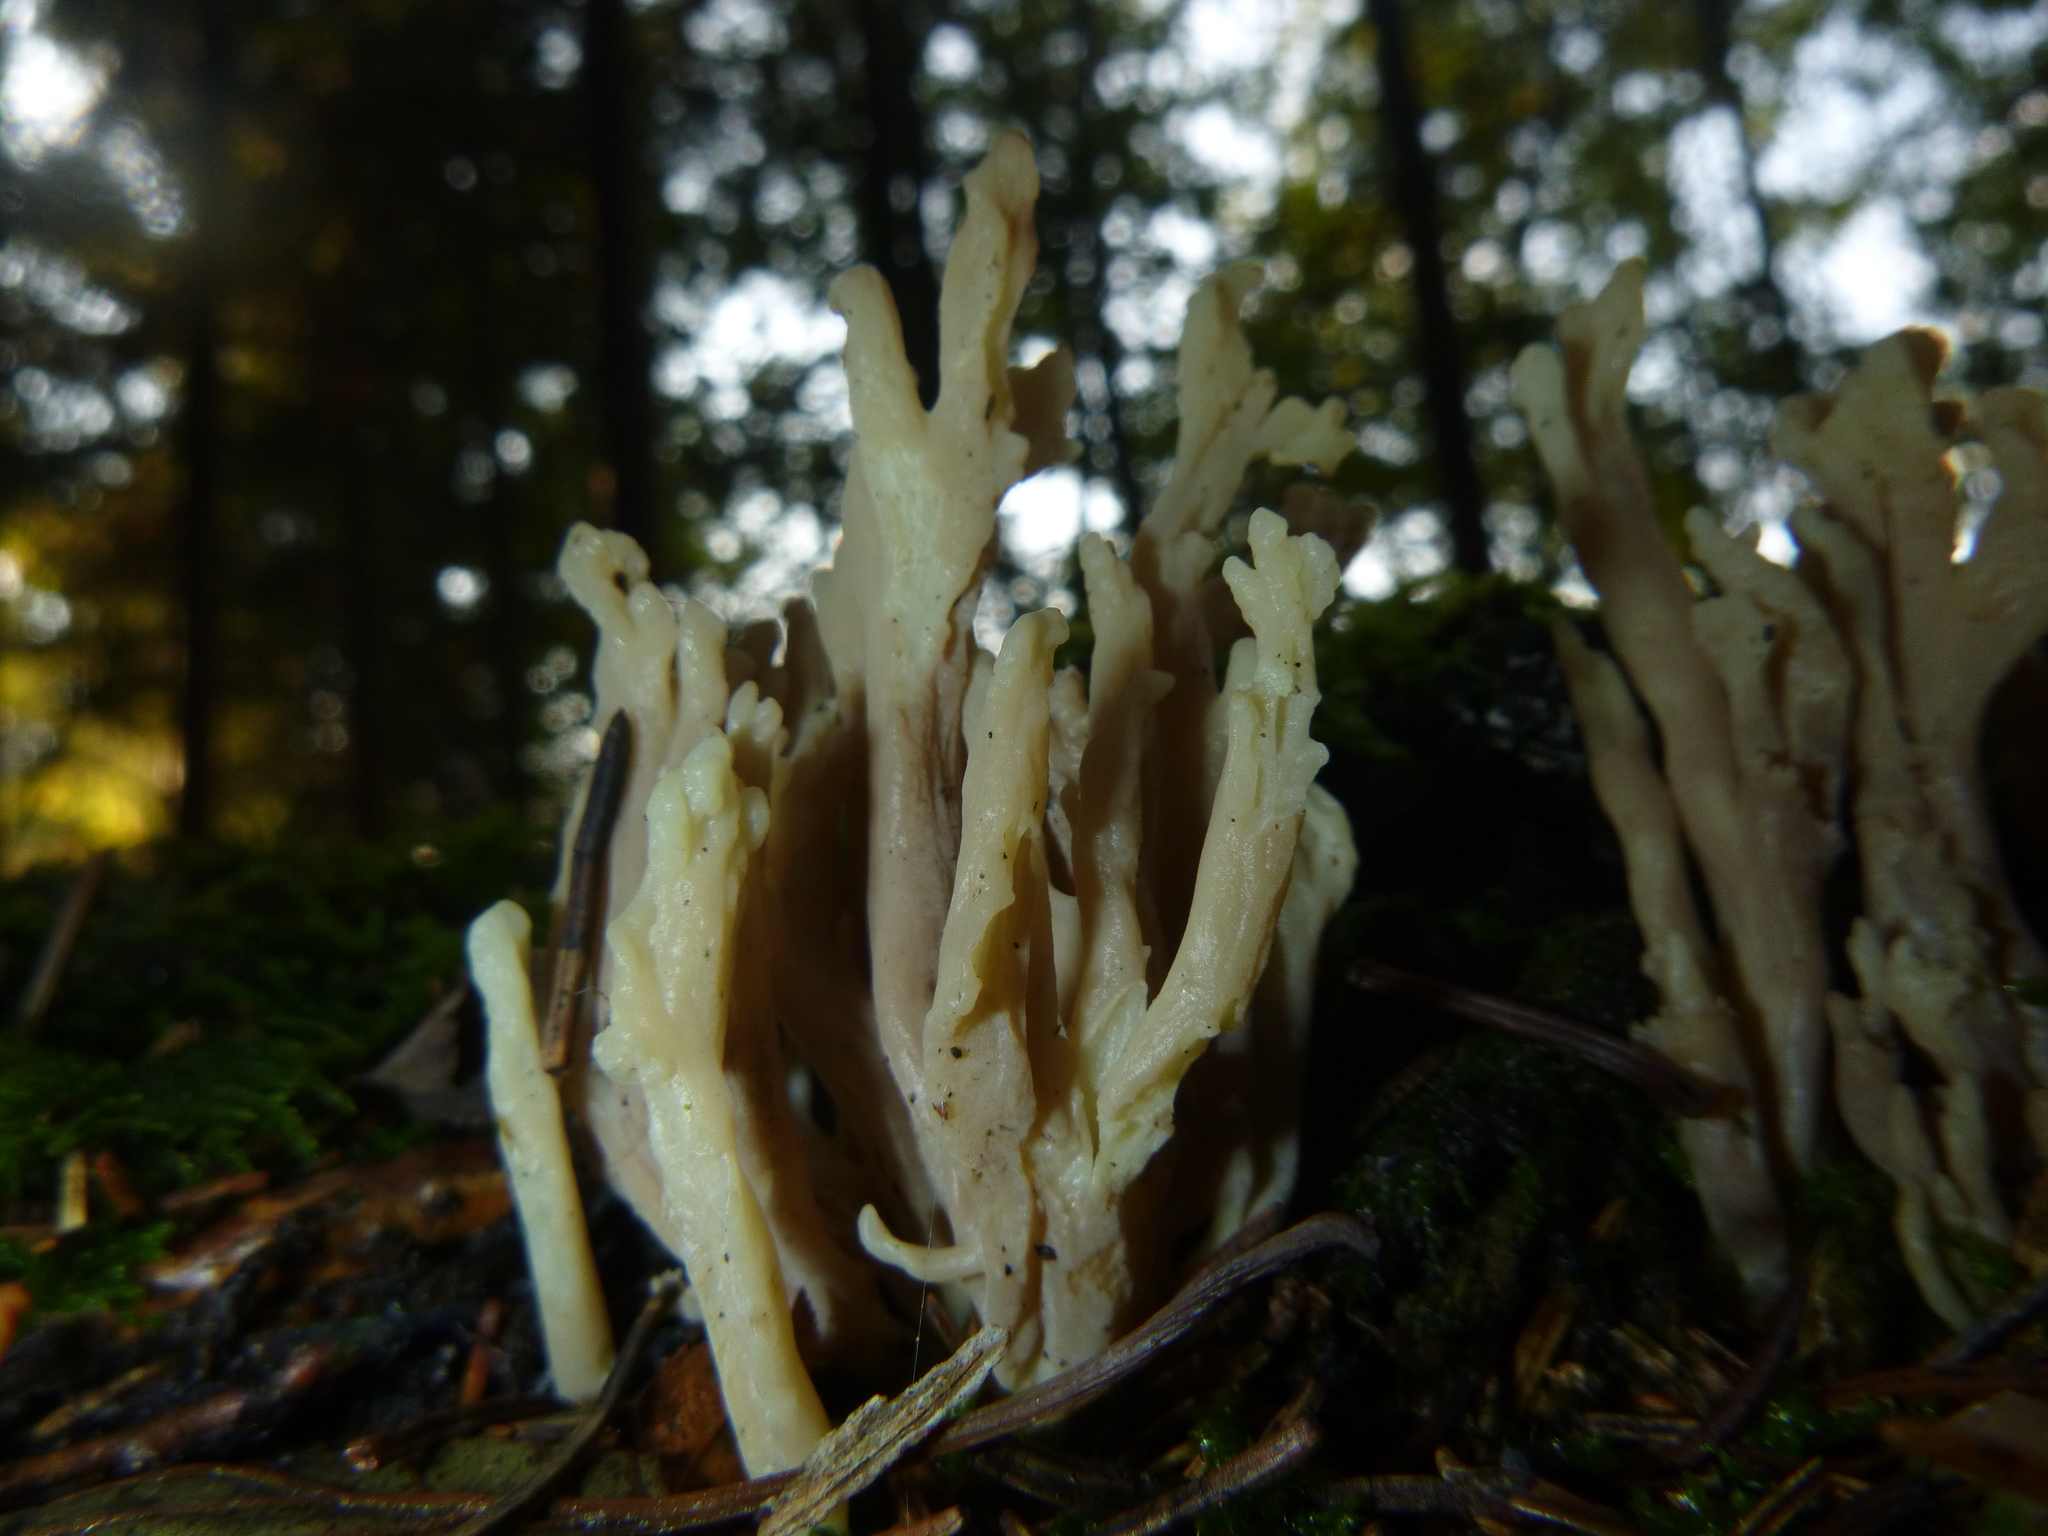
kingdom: Fungi
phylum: Basidiomycota
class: Agaricomycetes
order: Cantharellales
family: Hydnaceae
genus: Clavulina
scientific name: Clavulina cinerea
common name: Grey coral
